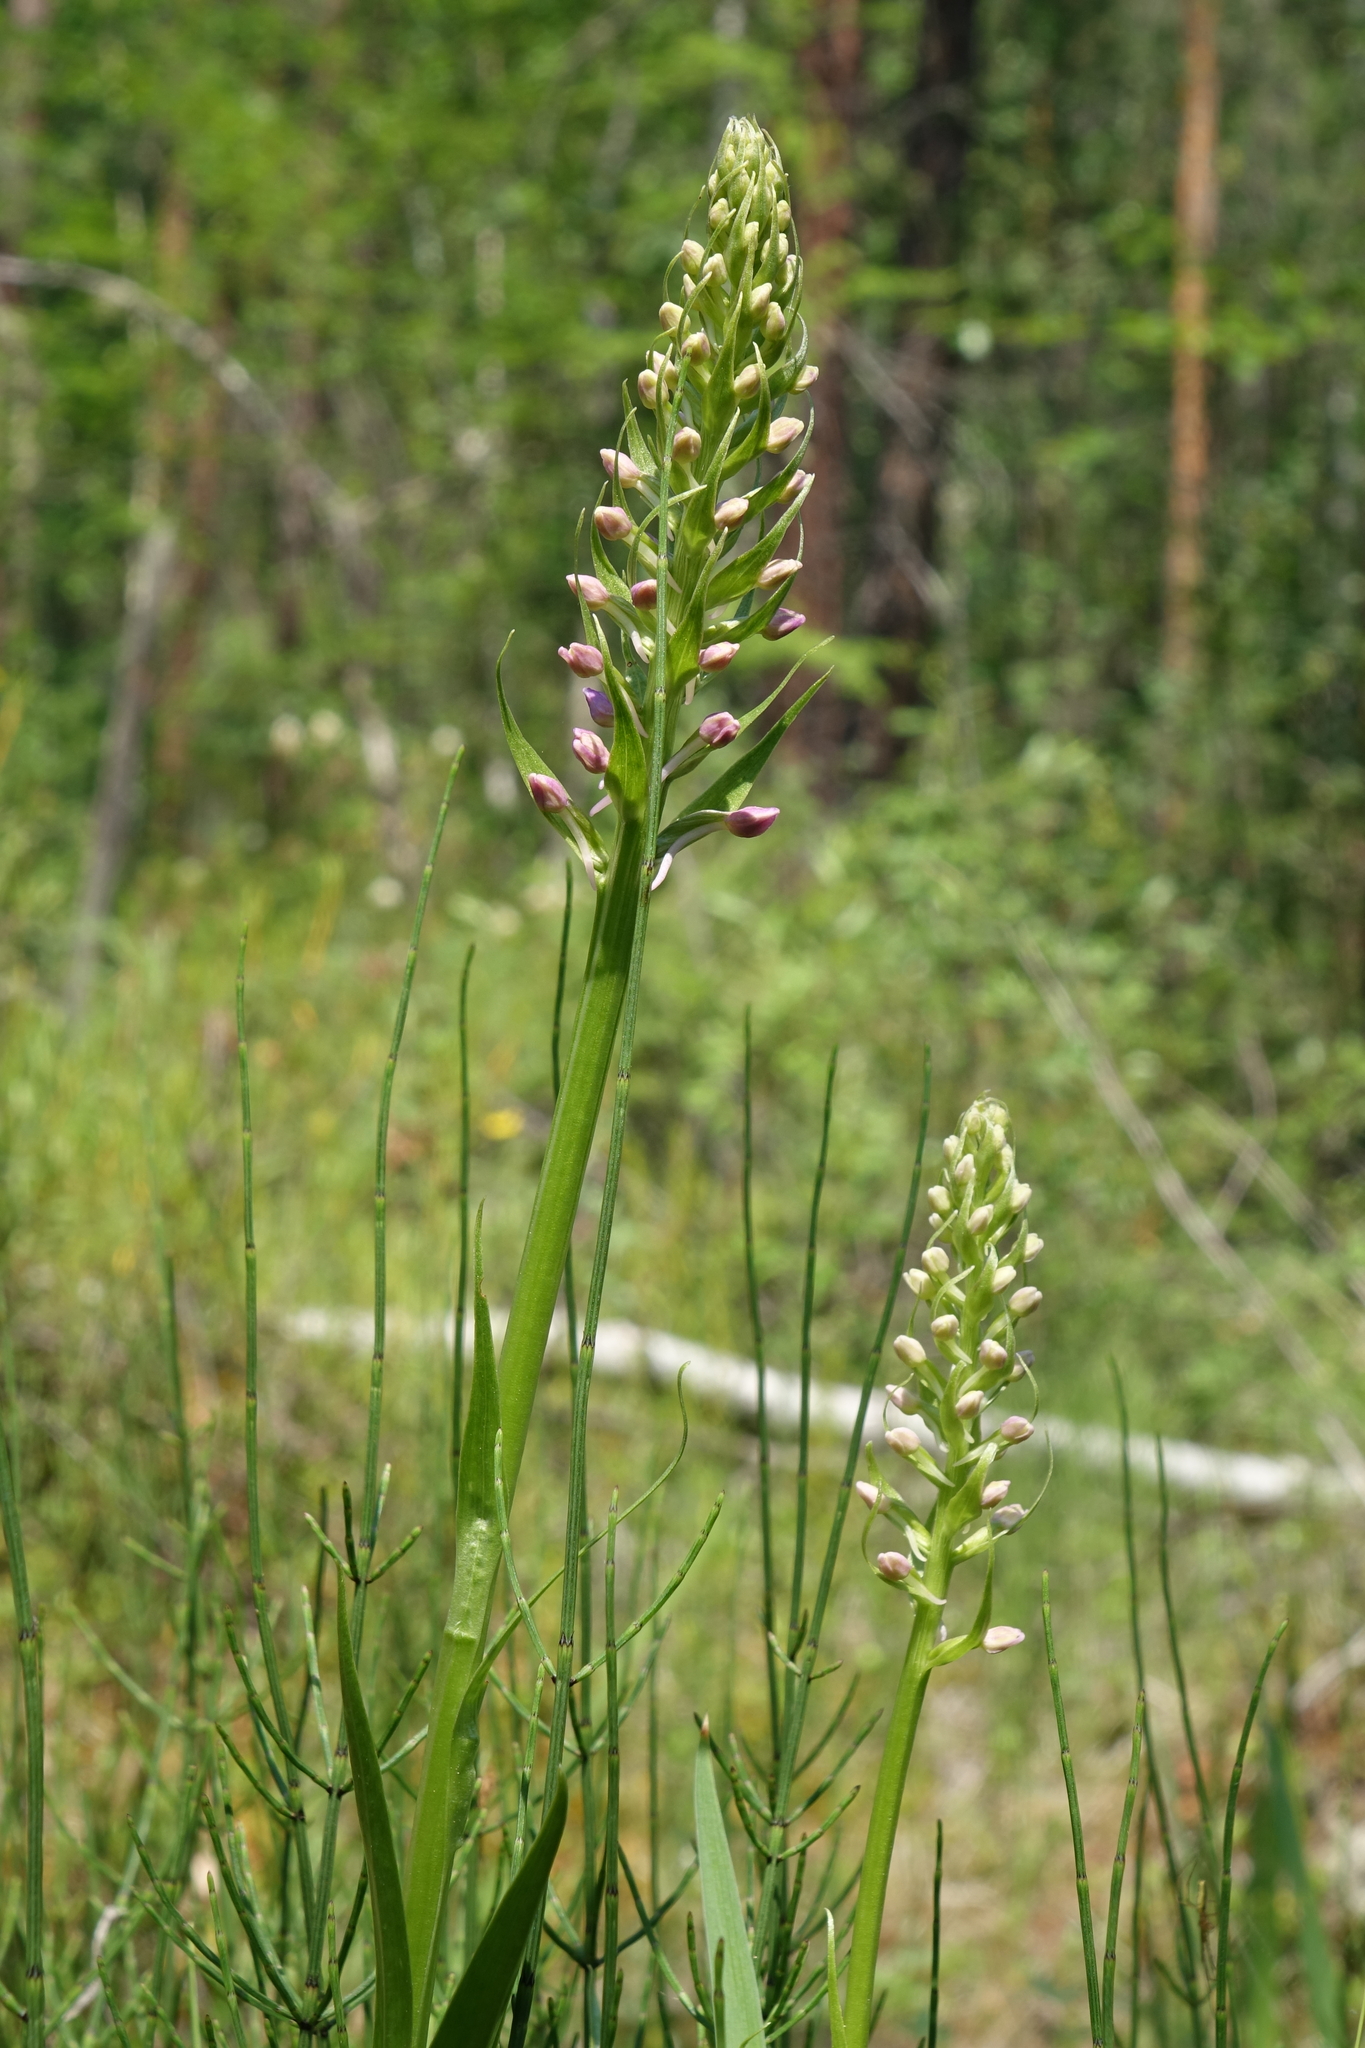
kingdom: Plantae
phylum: Tracheophyta
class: Liliopsida
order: Asparagales
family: Orchidaceae
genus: Gymnadenia
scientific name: Gymnadenia conopsea
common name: Fragrant orchid
